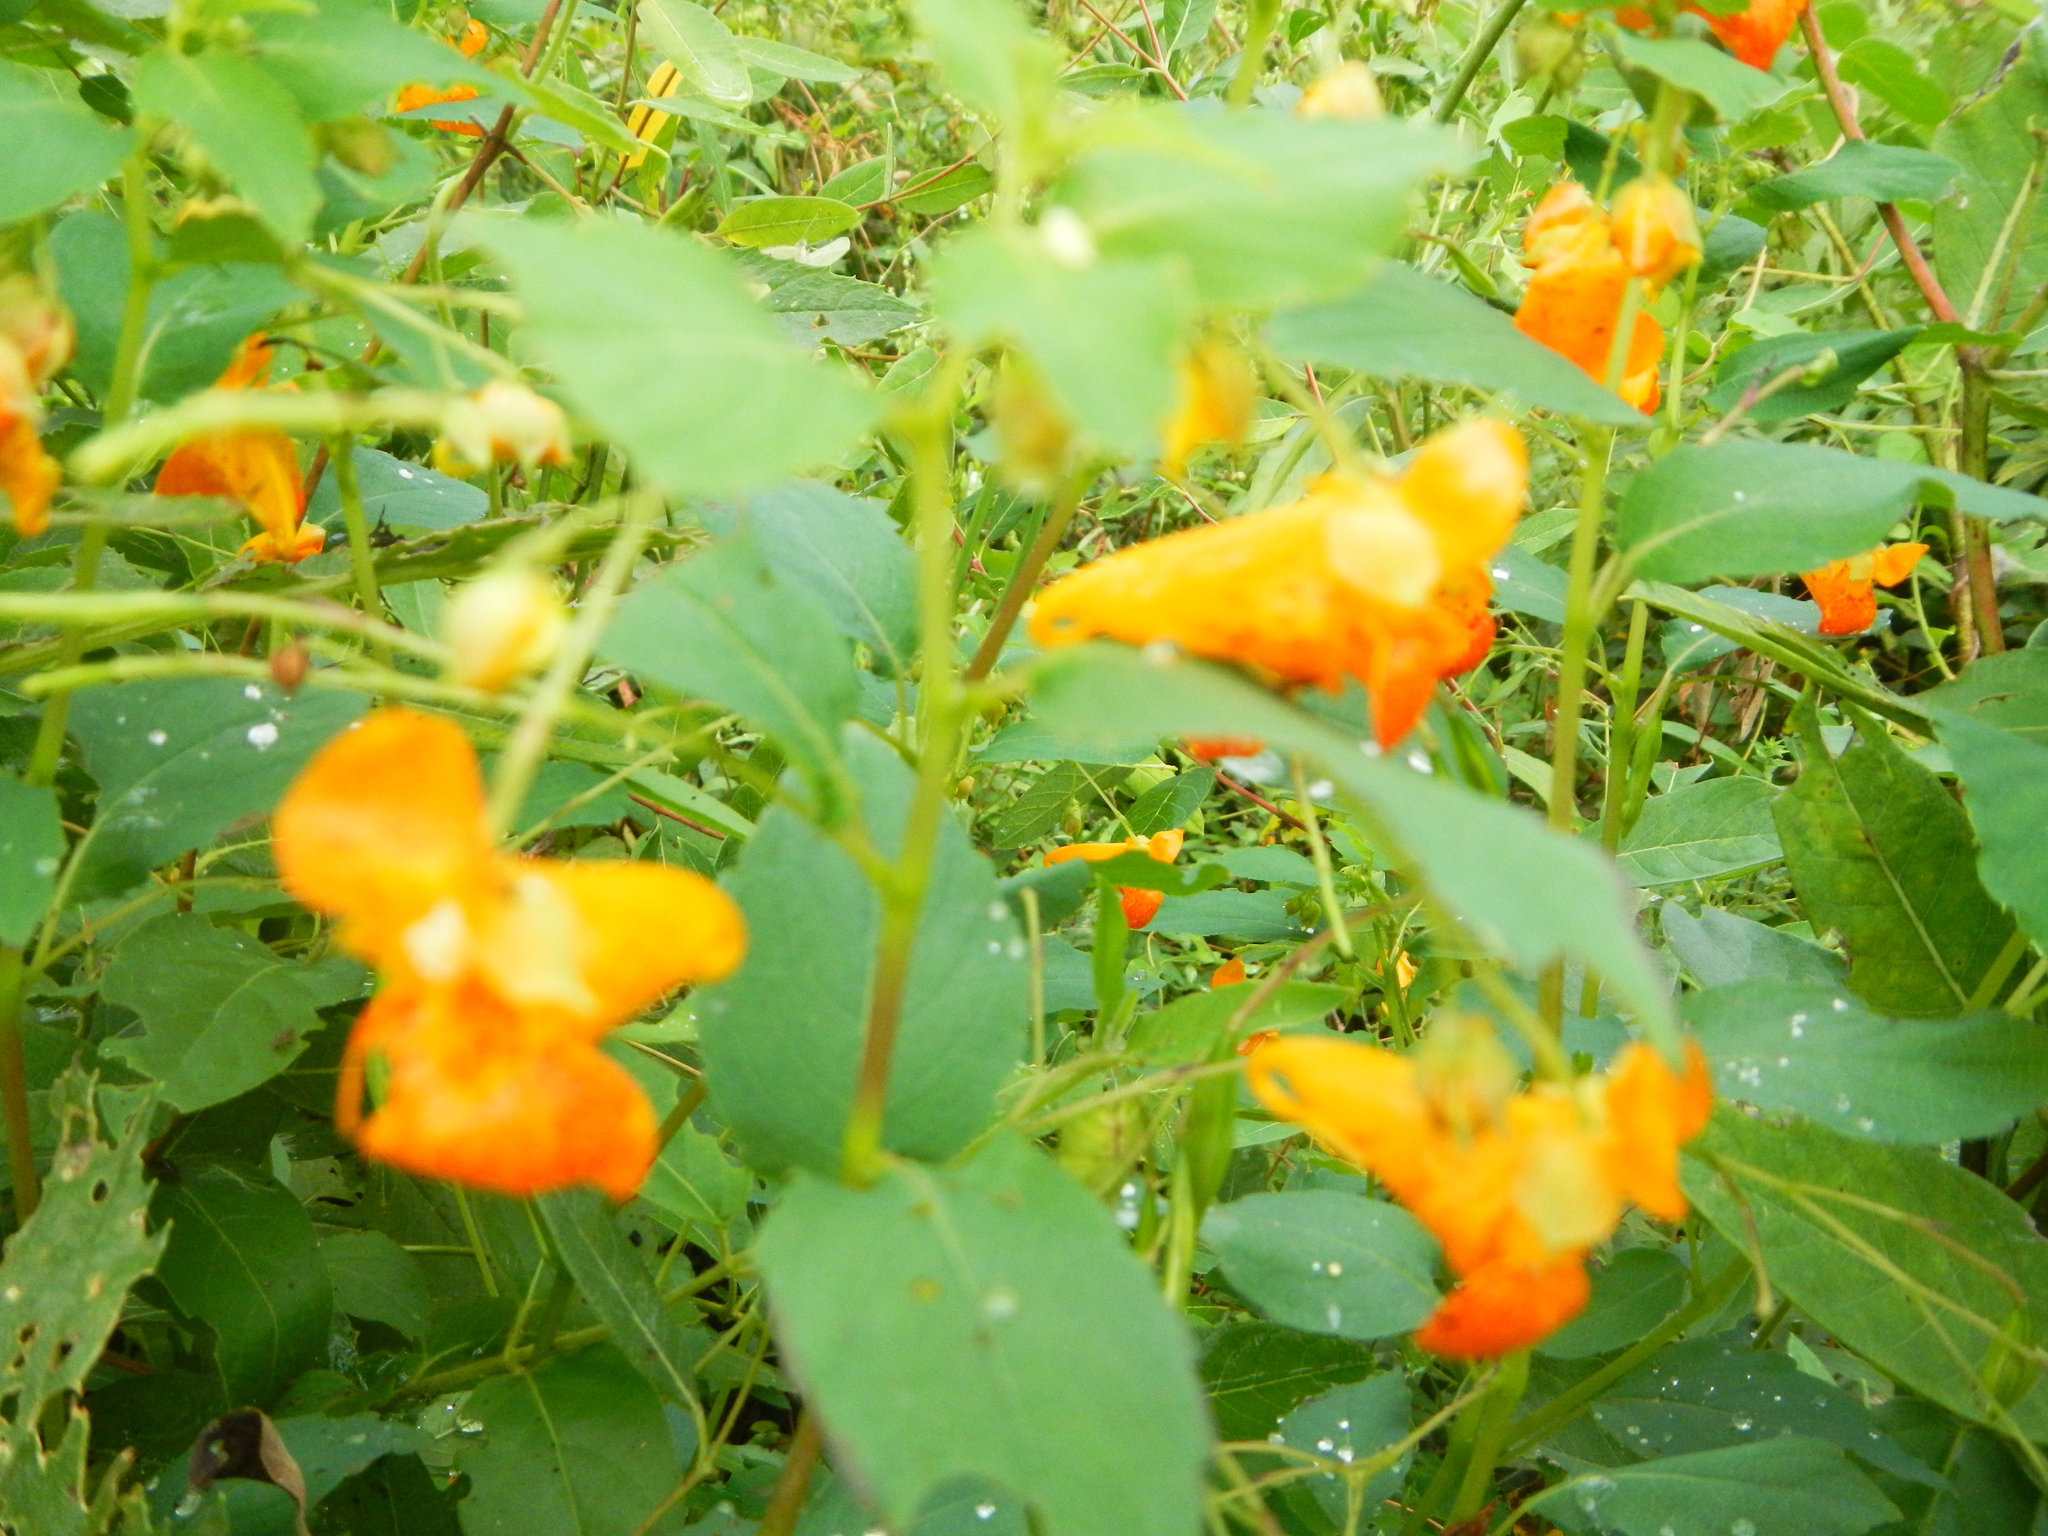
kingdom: Plantae
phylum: Tracheophyta
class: Magnoliopsida
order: Ericales
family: Balsaminaceae
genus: Impatiens
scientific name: Impatiens capensis
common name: Orange balsam
